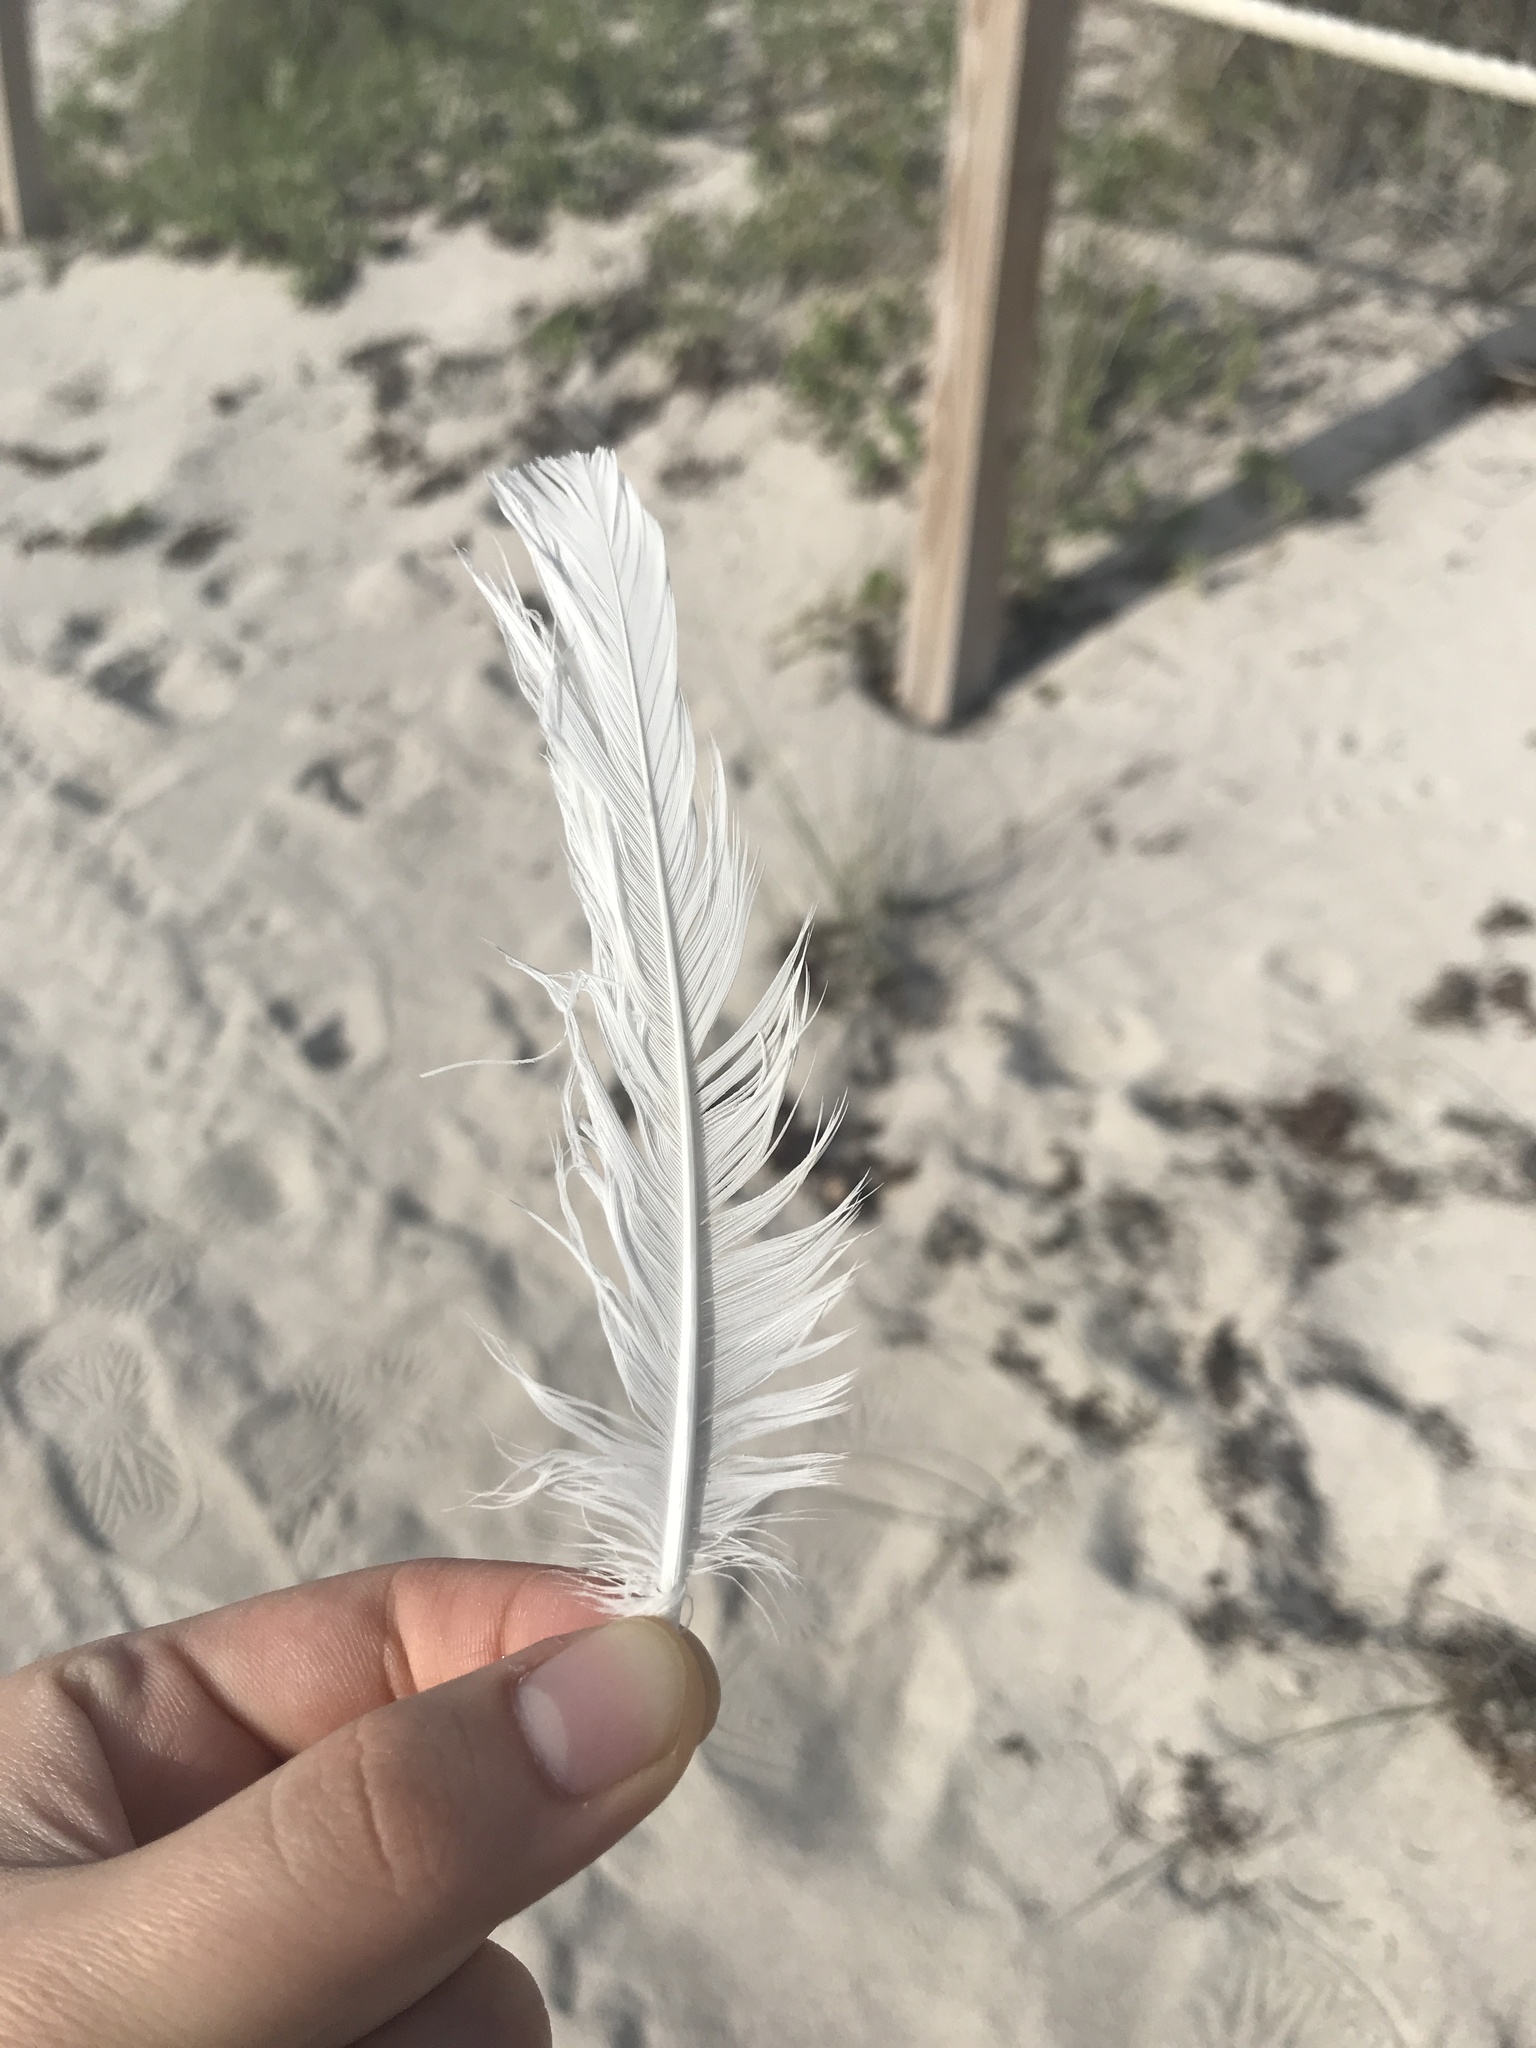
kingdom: Animalia
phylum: Chordata
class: Aves
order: Charadriiformes
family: Laridae
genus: Leucophaeus
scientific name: Leucophaeus atricilla
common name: Laughing gull
